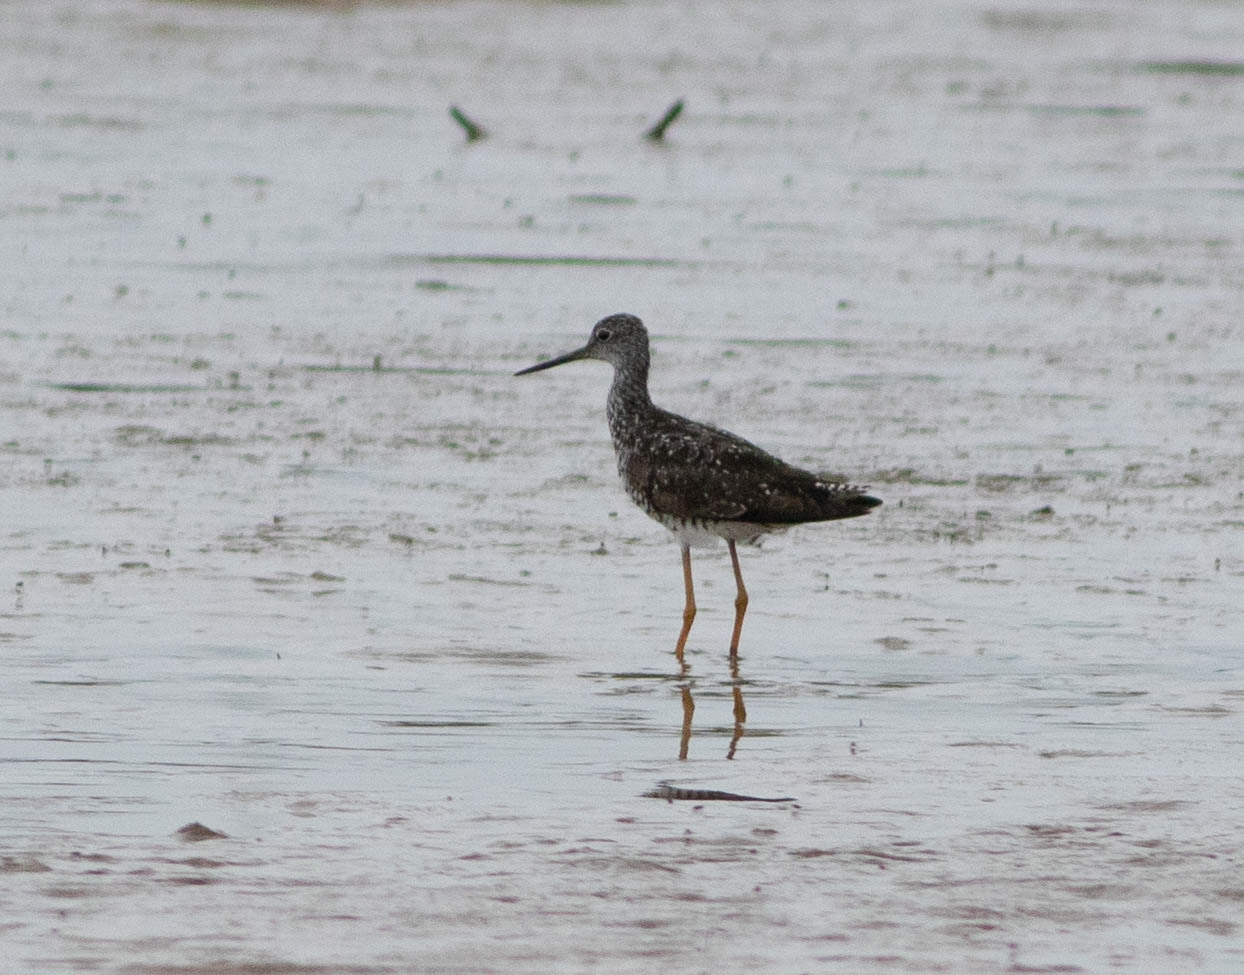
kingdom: Animalia
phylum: Chordata
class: Aves
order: Charadriiformes
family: Scolopacidae
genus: Tringa
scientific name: Tringa melanoleuca
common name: Greater yellowlegs
